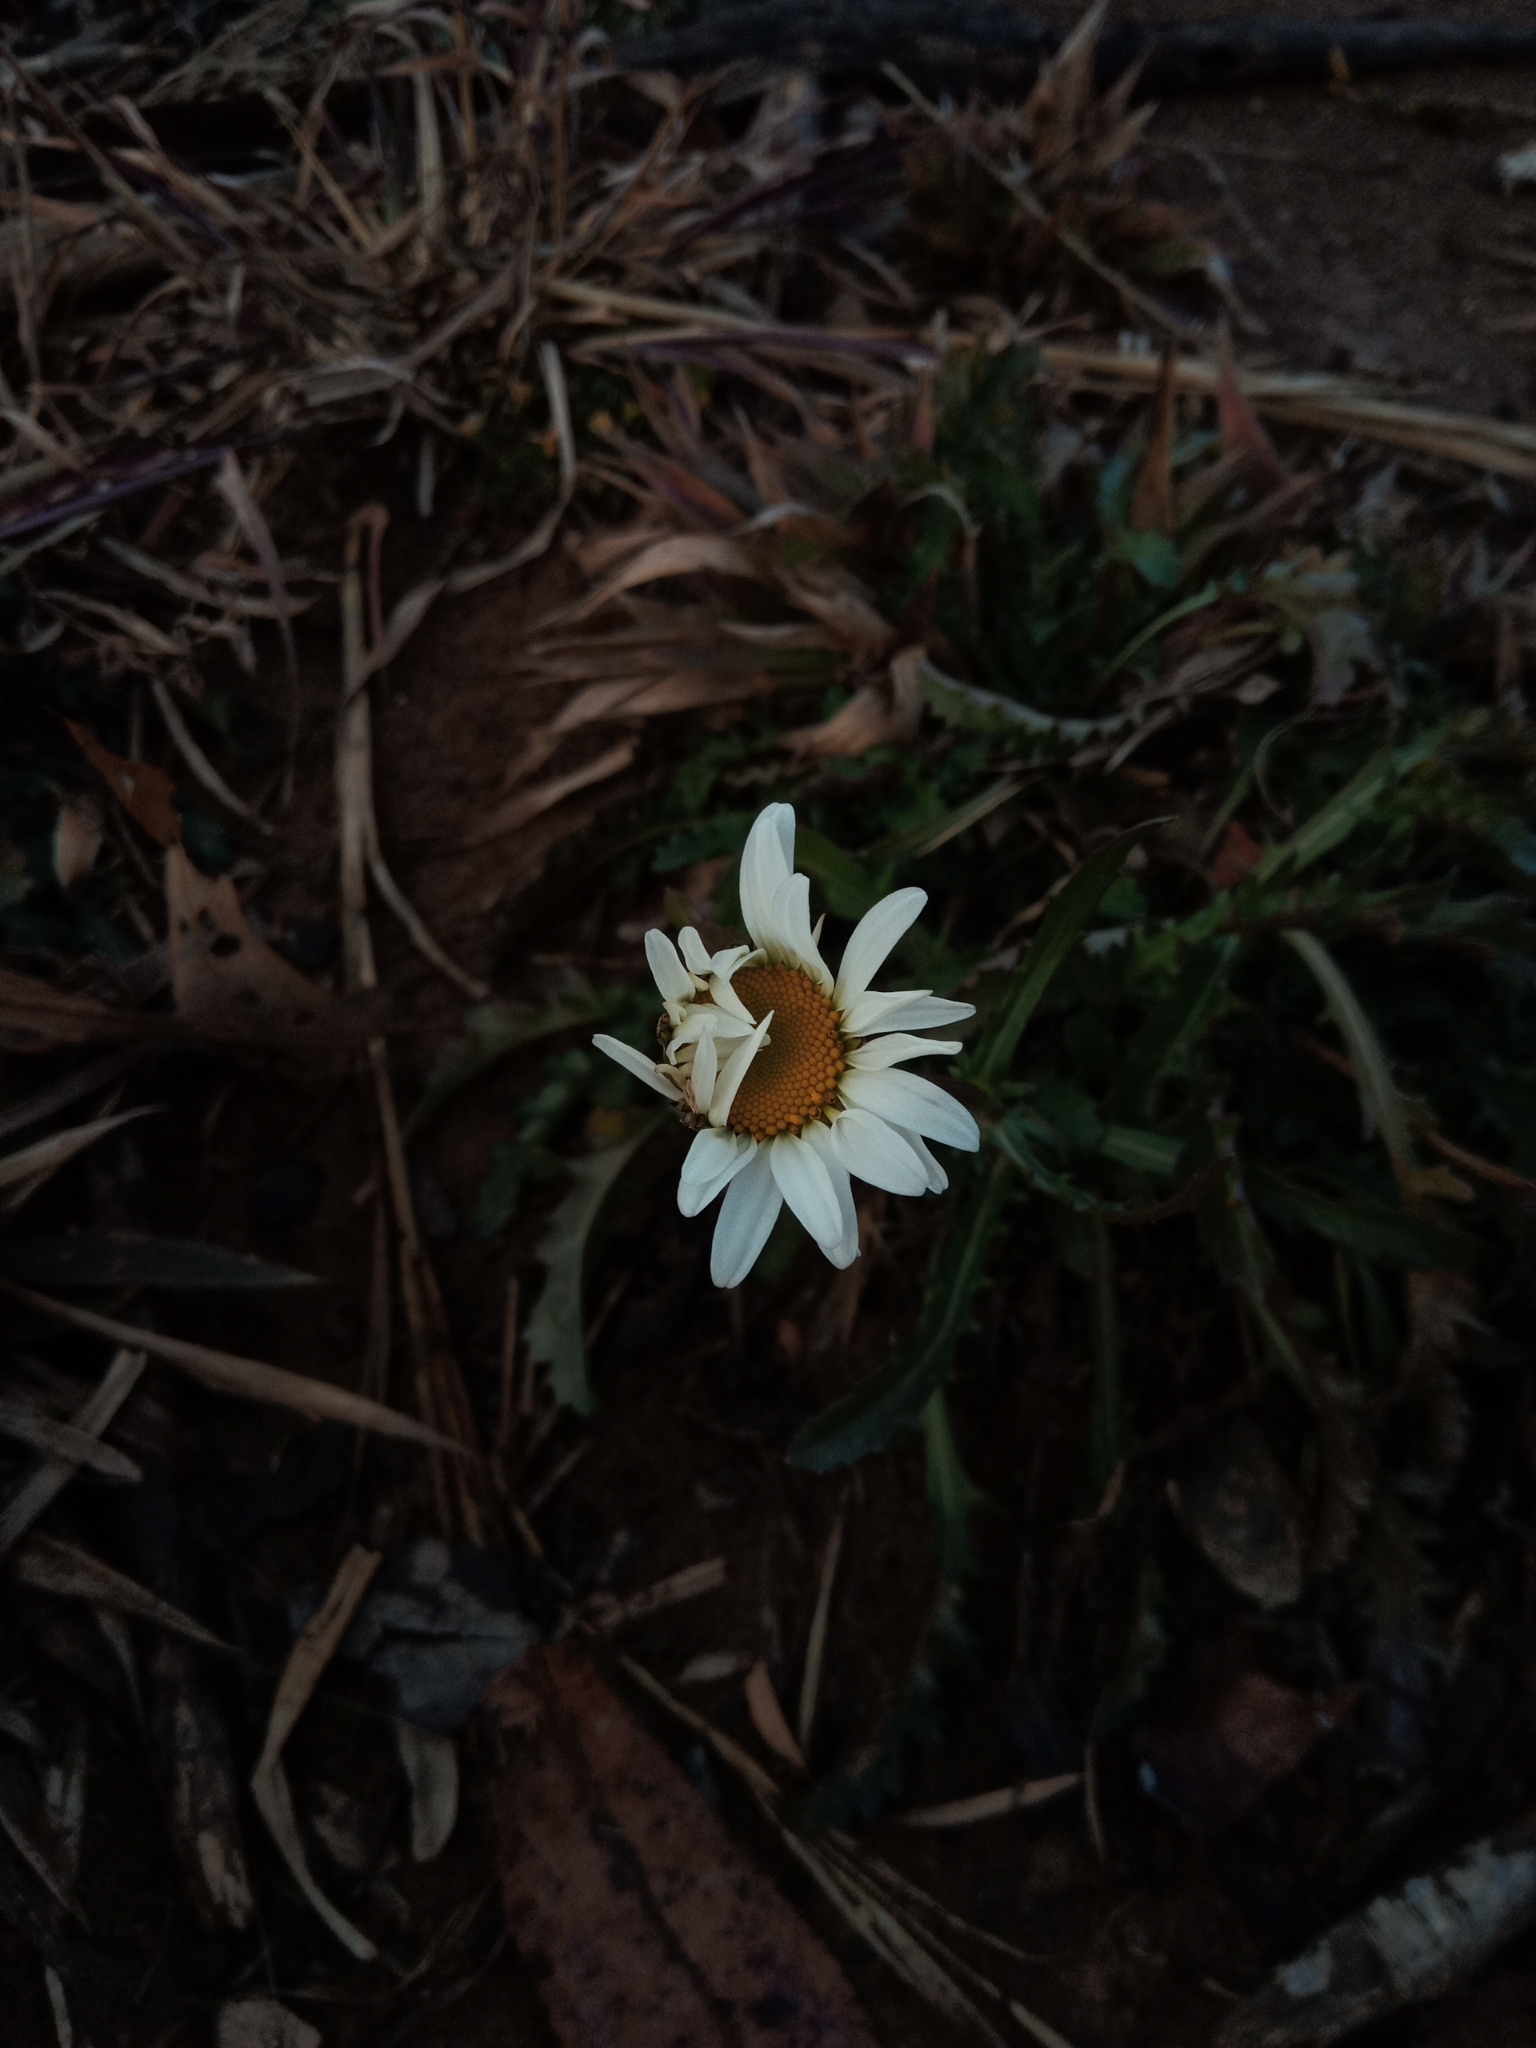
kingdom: Plantae
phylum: Tracheophyta
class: Magnoliopsida
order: Asterales
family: Asteraceae
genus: Leucanthemum
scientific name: Leucanthemum vulgare
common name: Oxeye daisy
